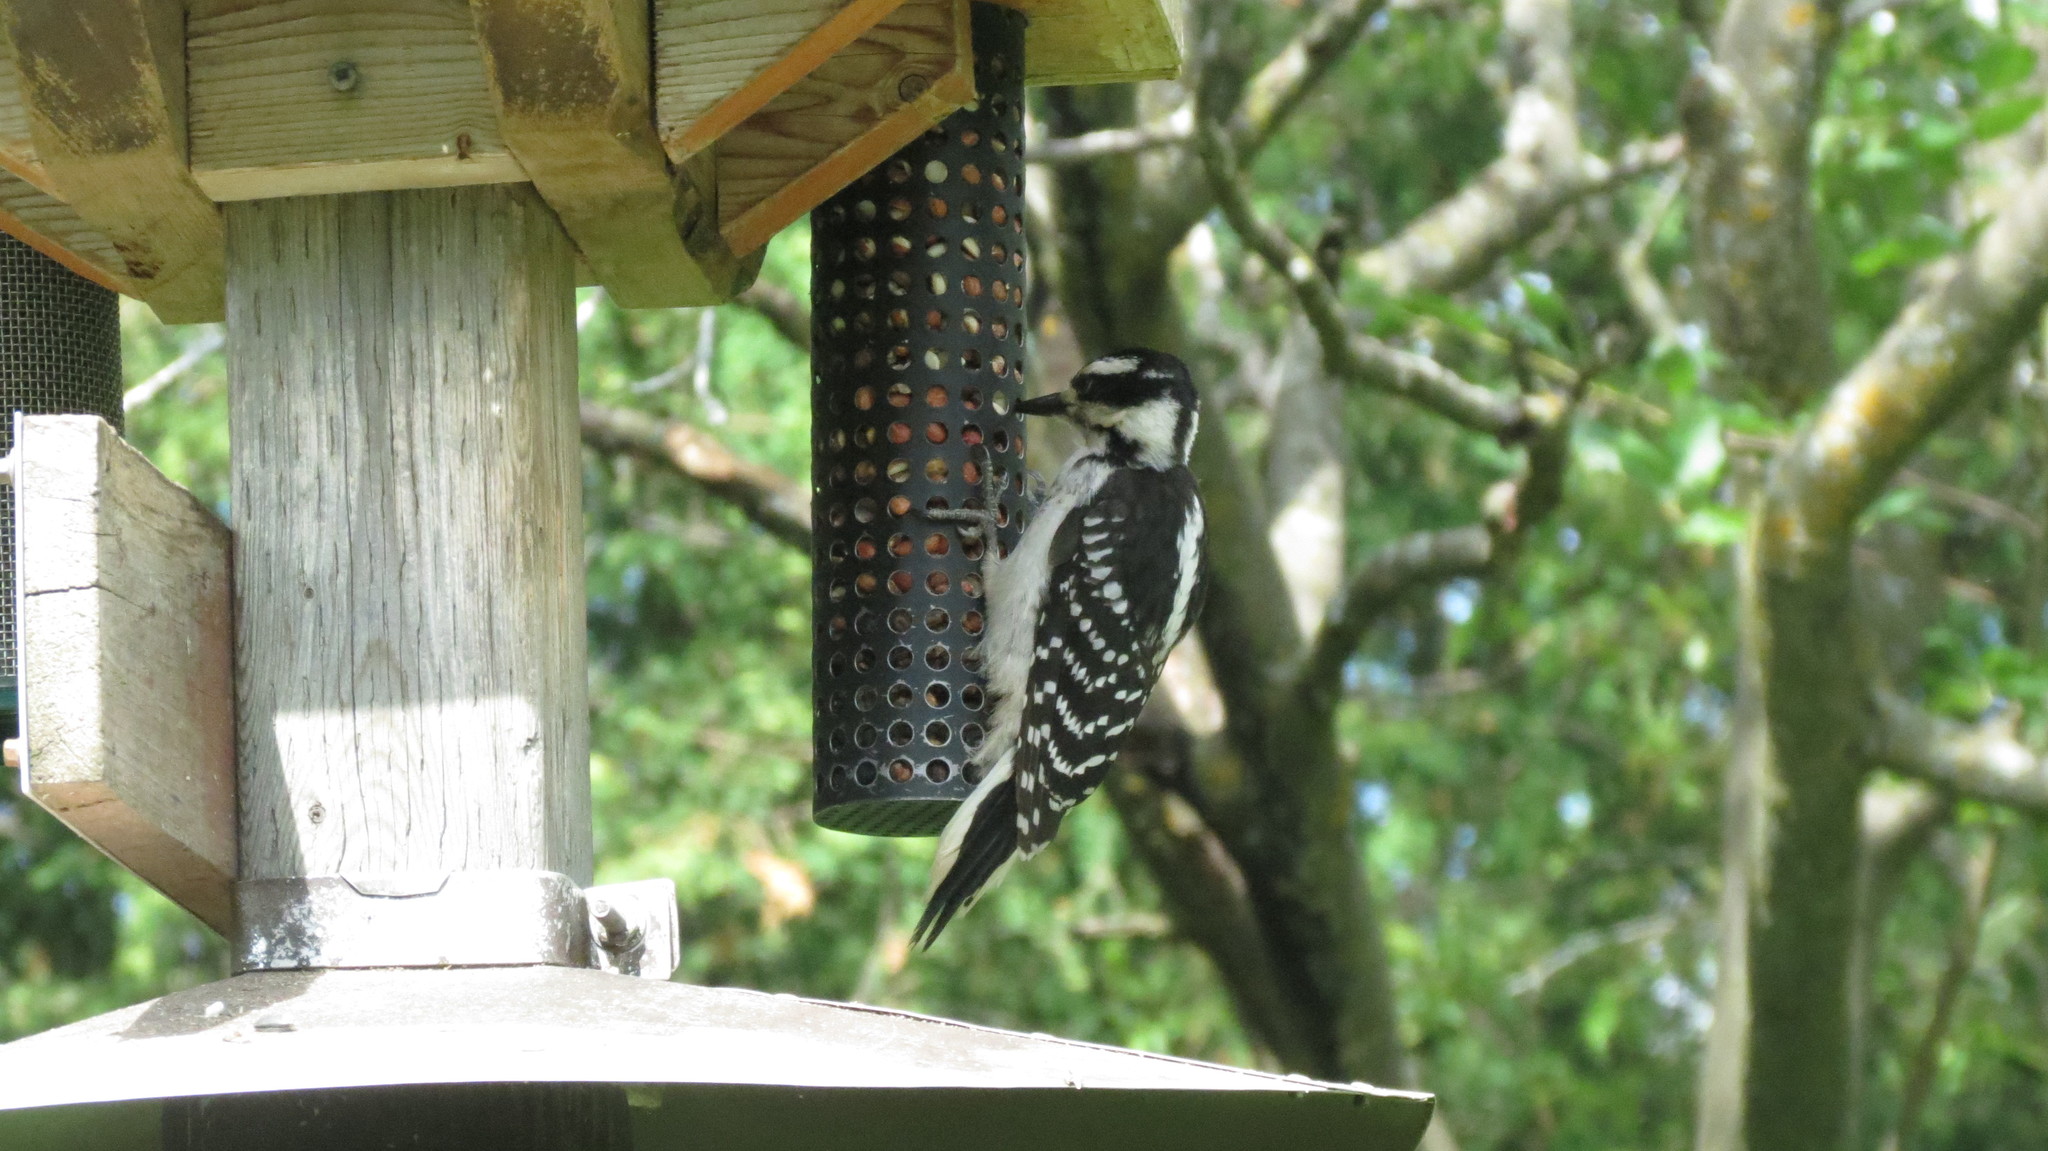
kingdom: Animalia
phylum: Chordata
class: Aves
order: Piciformes
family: Picidae
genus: Leuconotopicus
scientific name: Leuconotopicus villosus
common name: Hairy woodpecker
